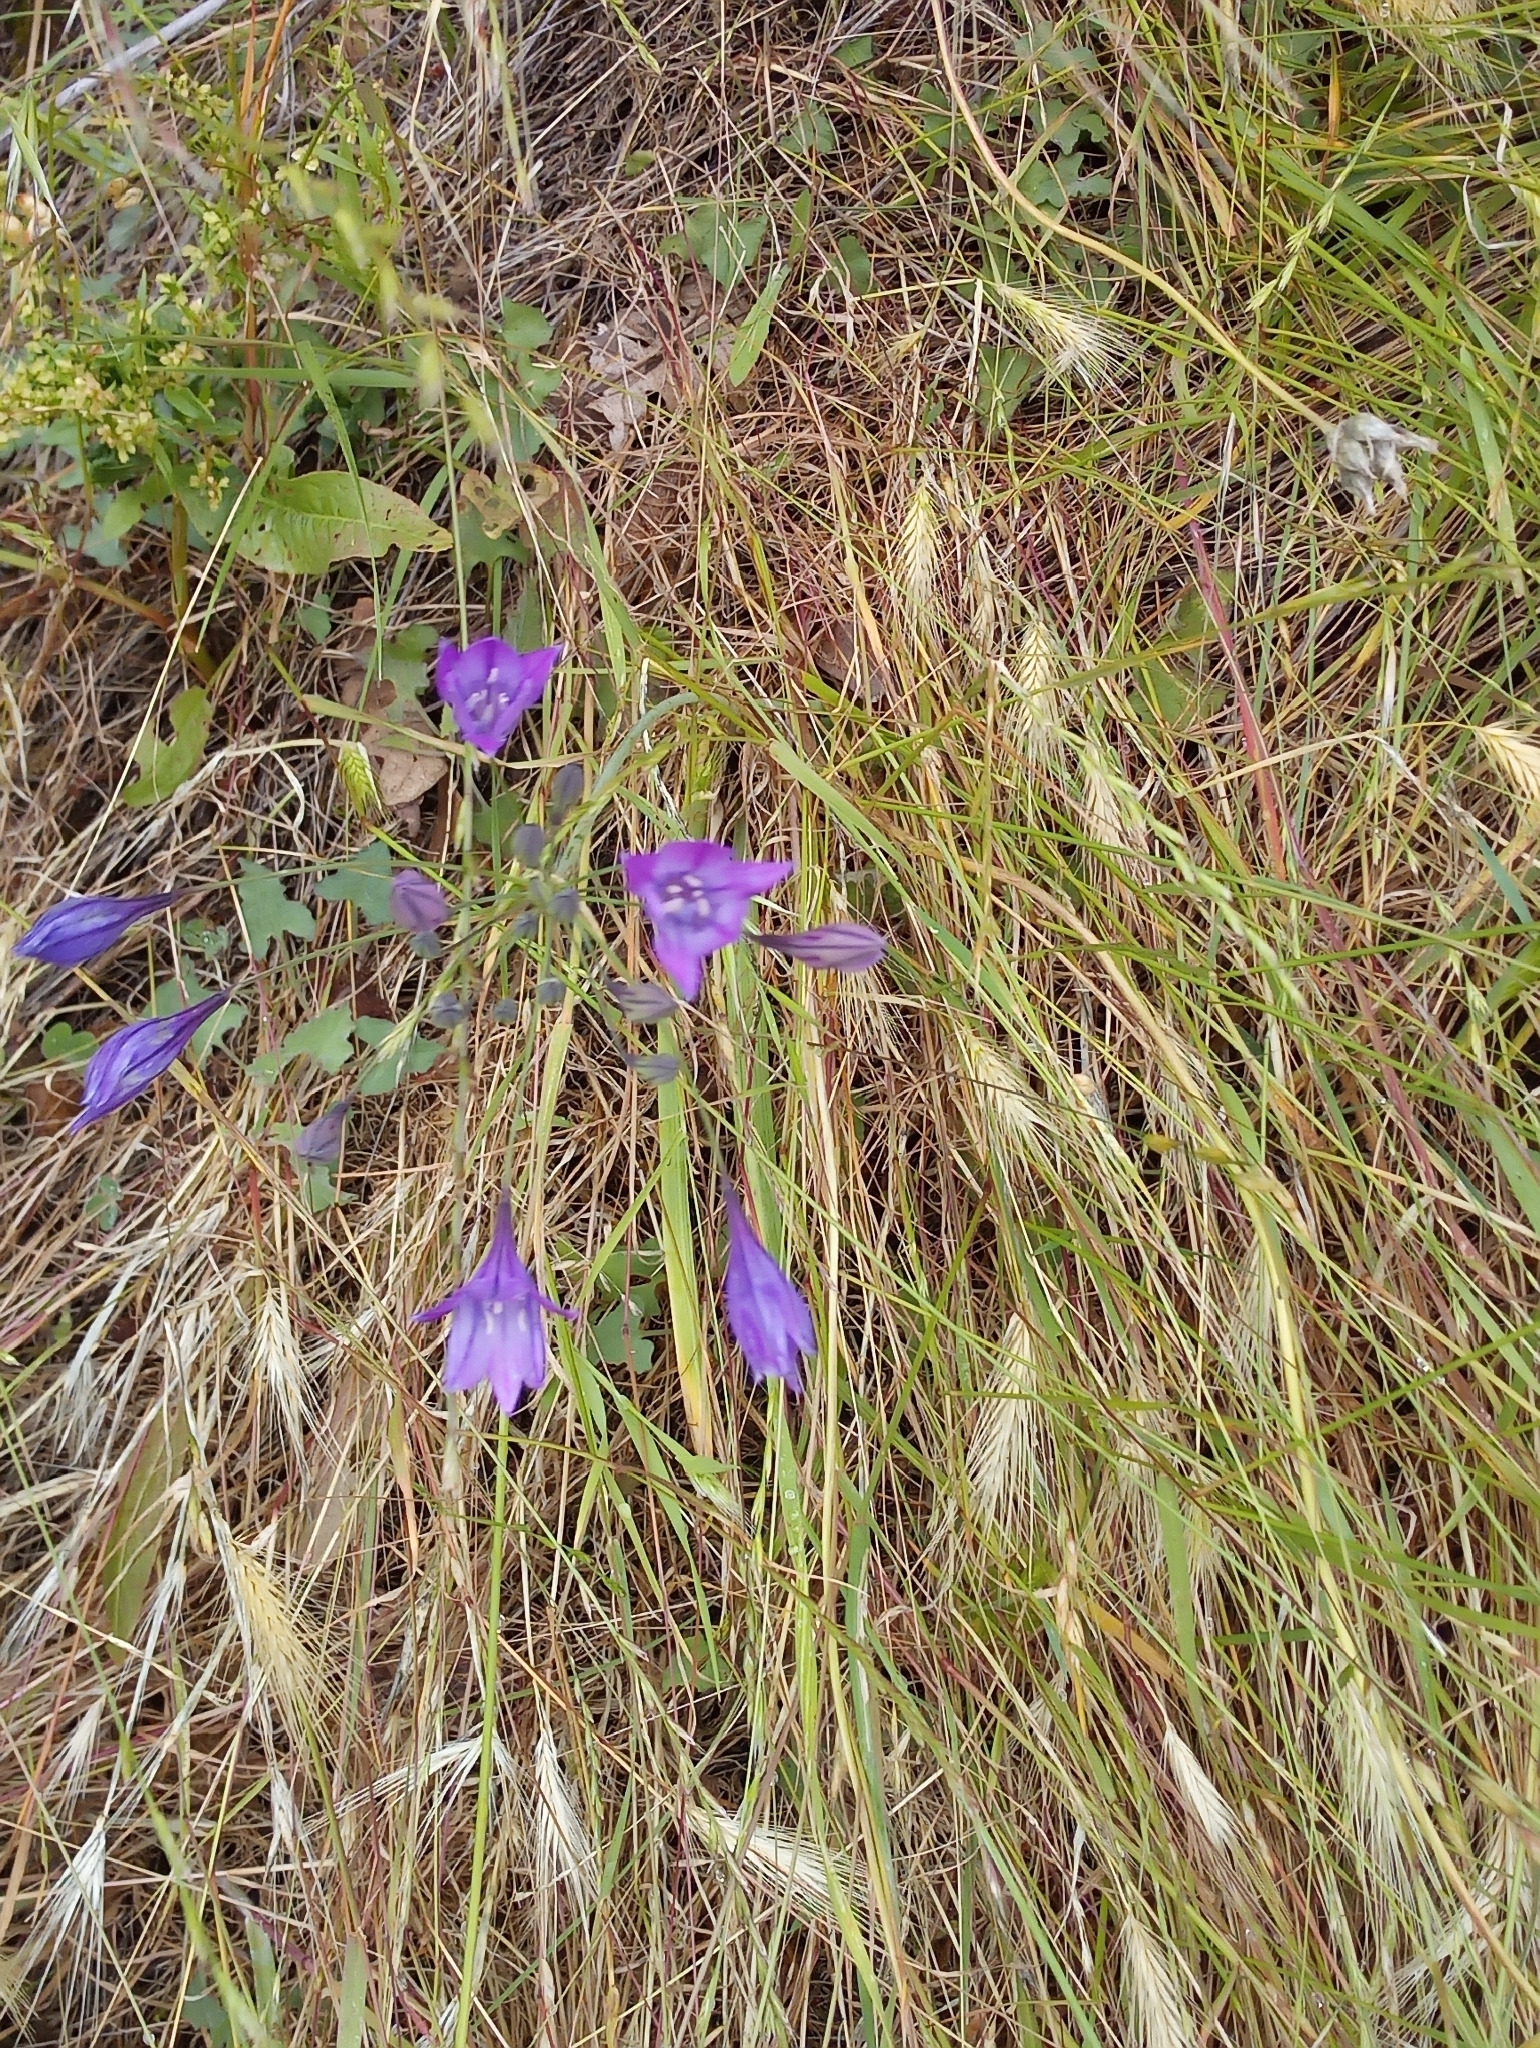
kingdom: Plantae
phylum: Tracheophyta
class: Liliopsida
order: Asparagales
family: Asparagaceae
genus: Triteleia
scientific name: Triteleia laxa
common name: Triplet-lily
